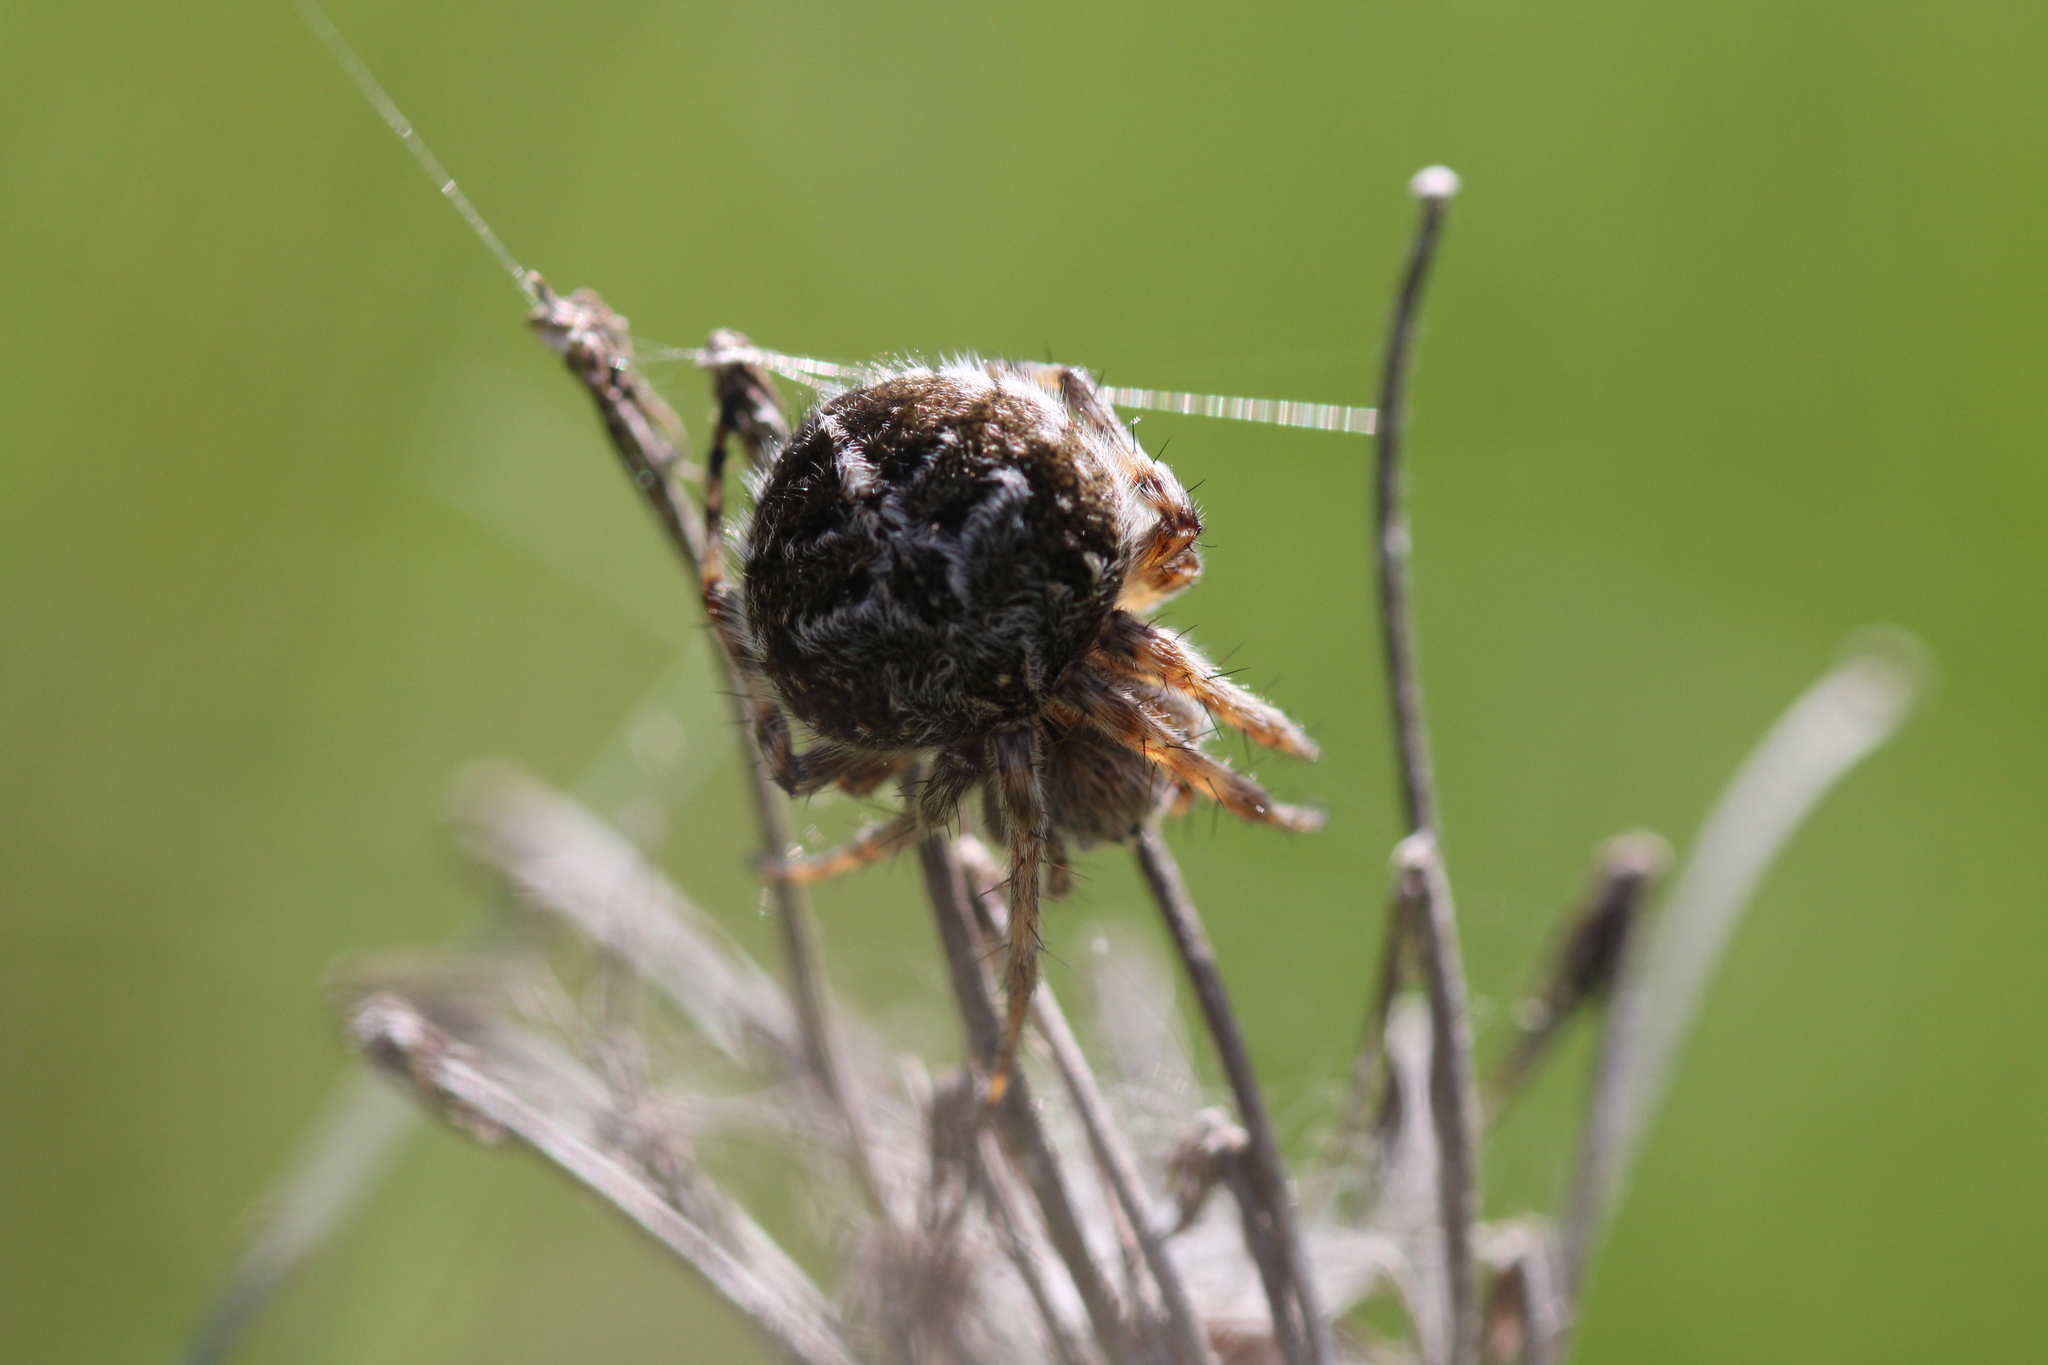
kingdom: Animalia
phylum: Arthropoda
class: Arachnida
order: Araneae
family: Araneidae
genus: Agalenatea
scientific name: Agalenatea redii
